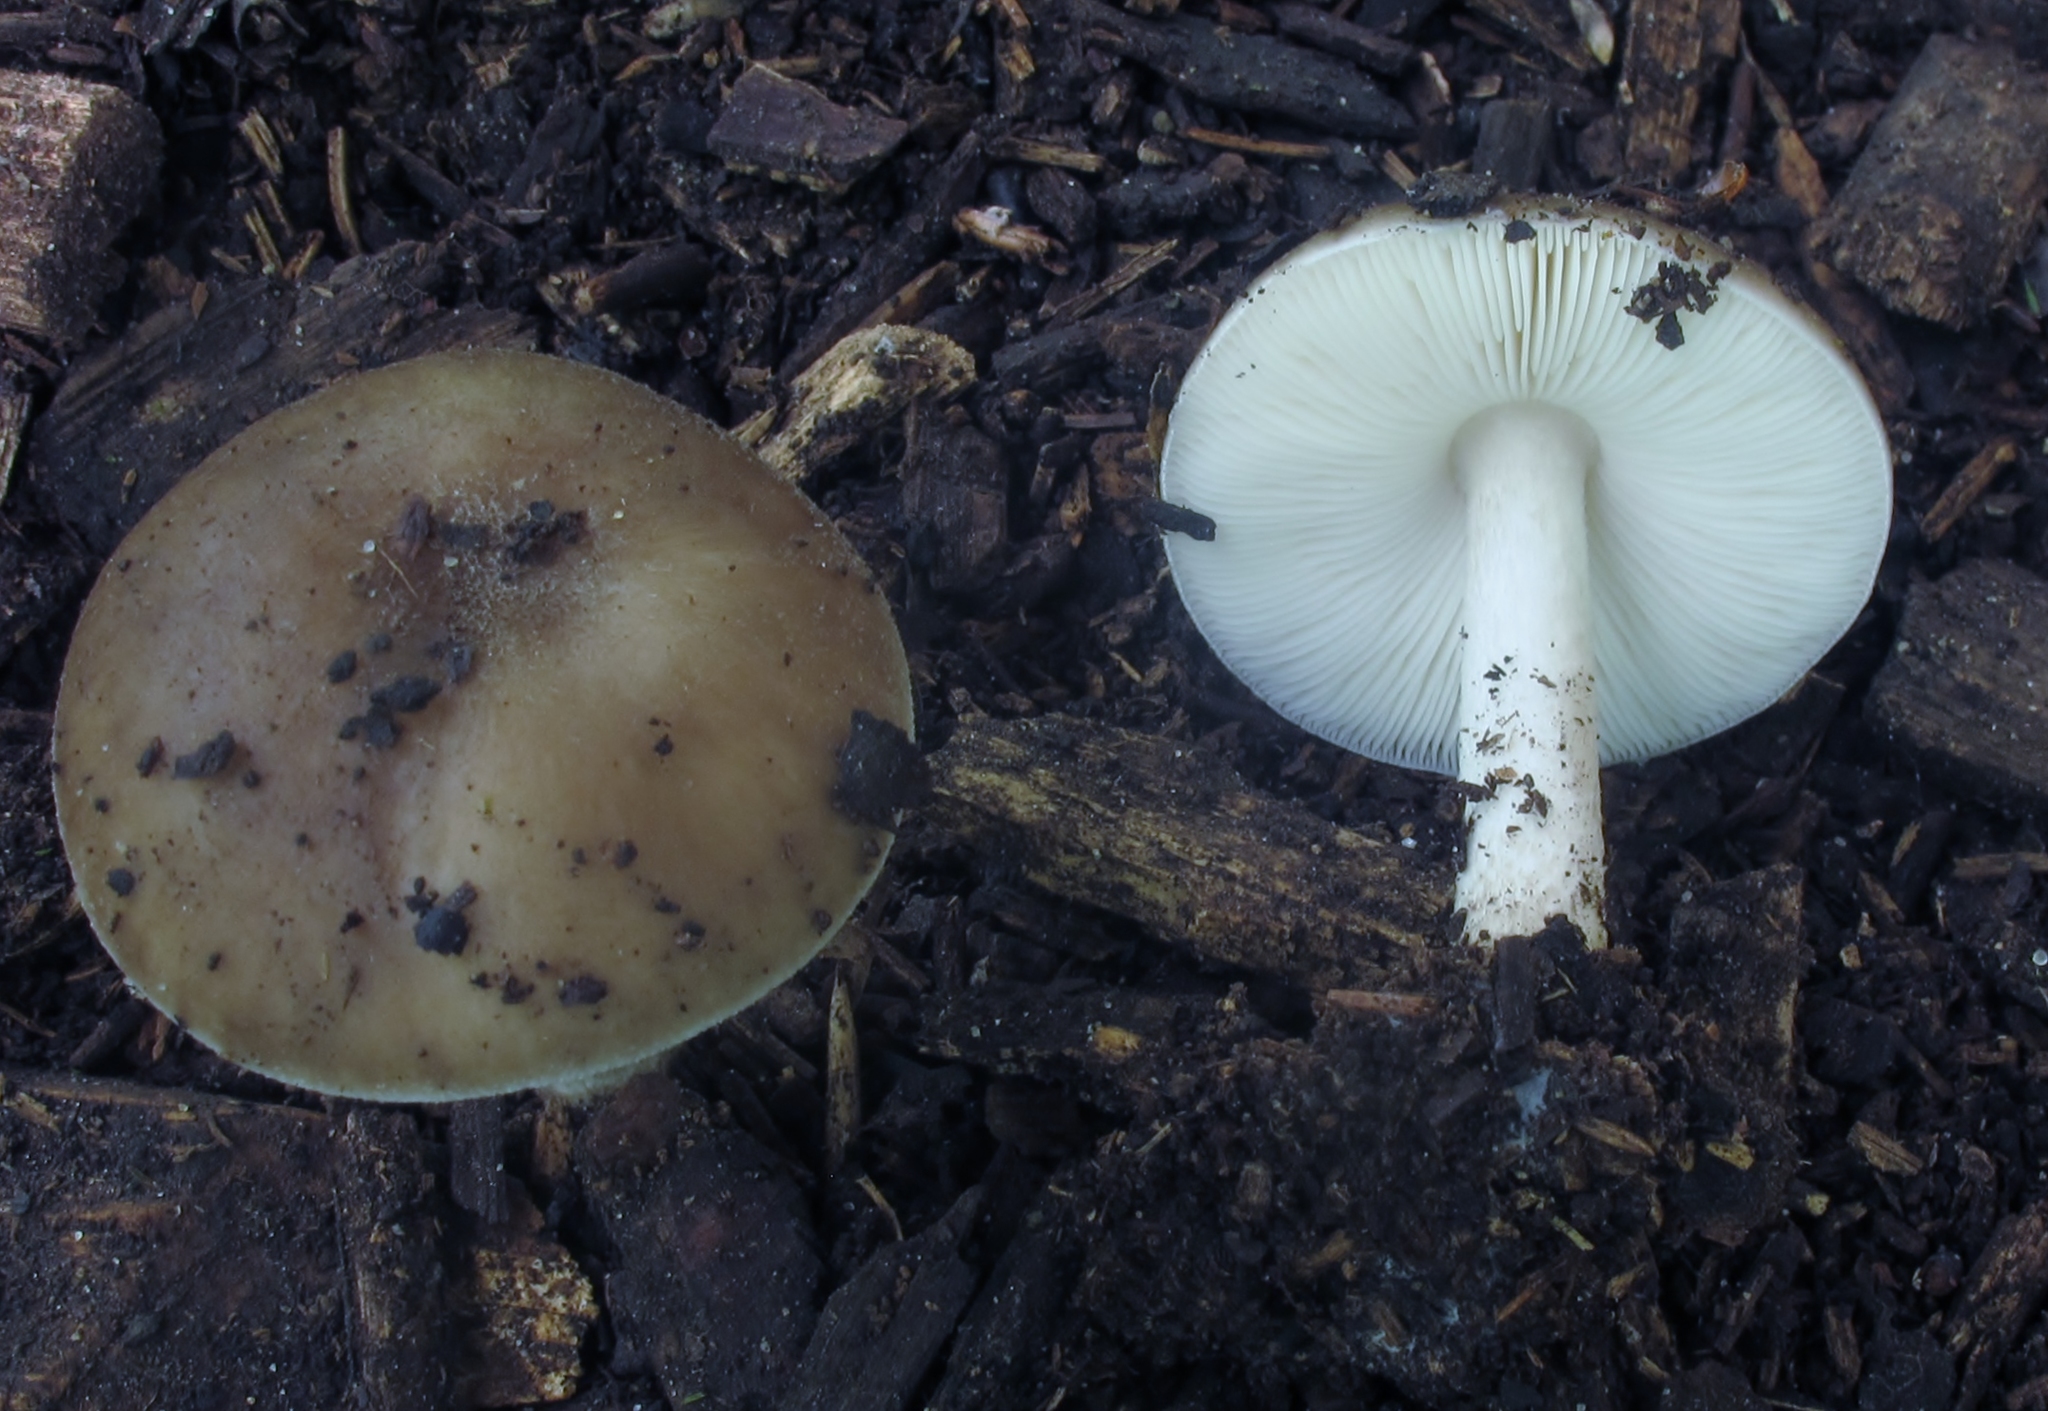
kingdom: Fungi
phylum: Basidiomycota
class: Agaricomycetes
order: Agaricales
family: Pluteaceae
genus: Pluteus
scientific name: Pluteus cervinus
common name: Deer shield
